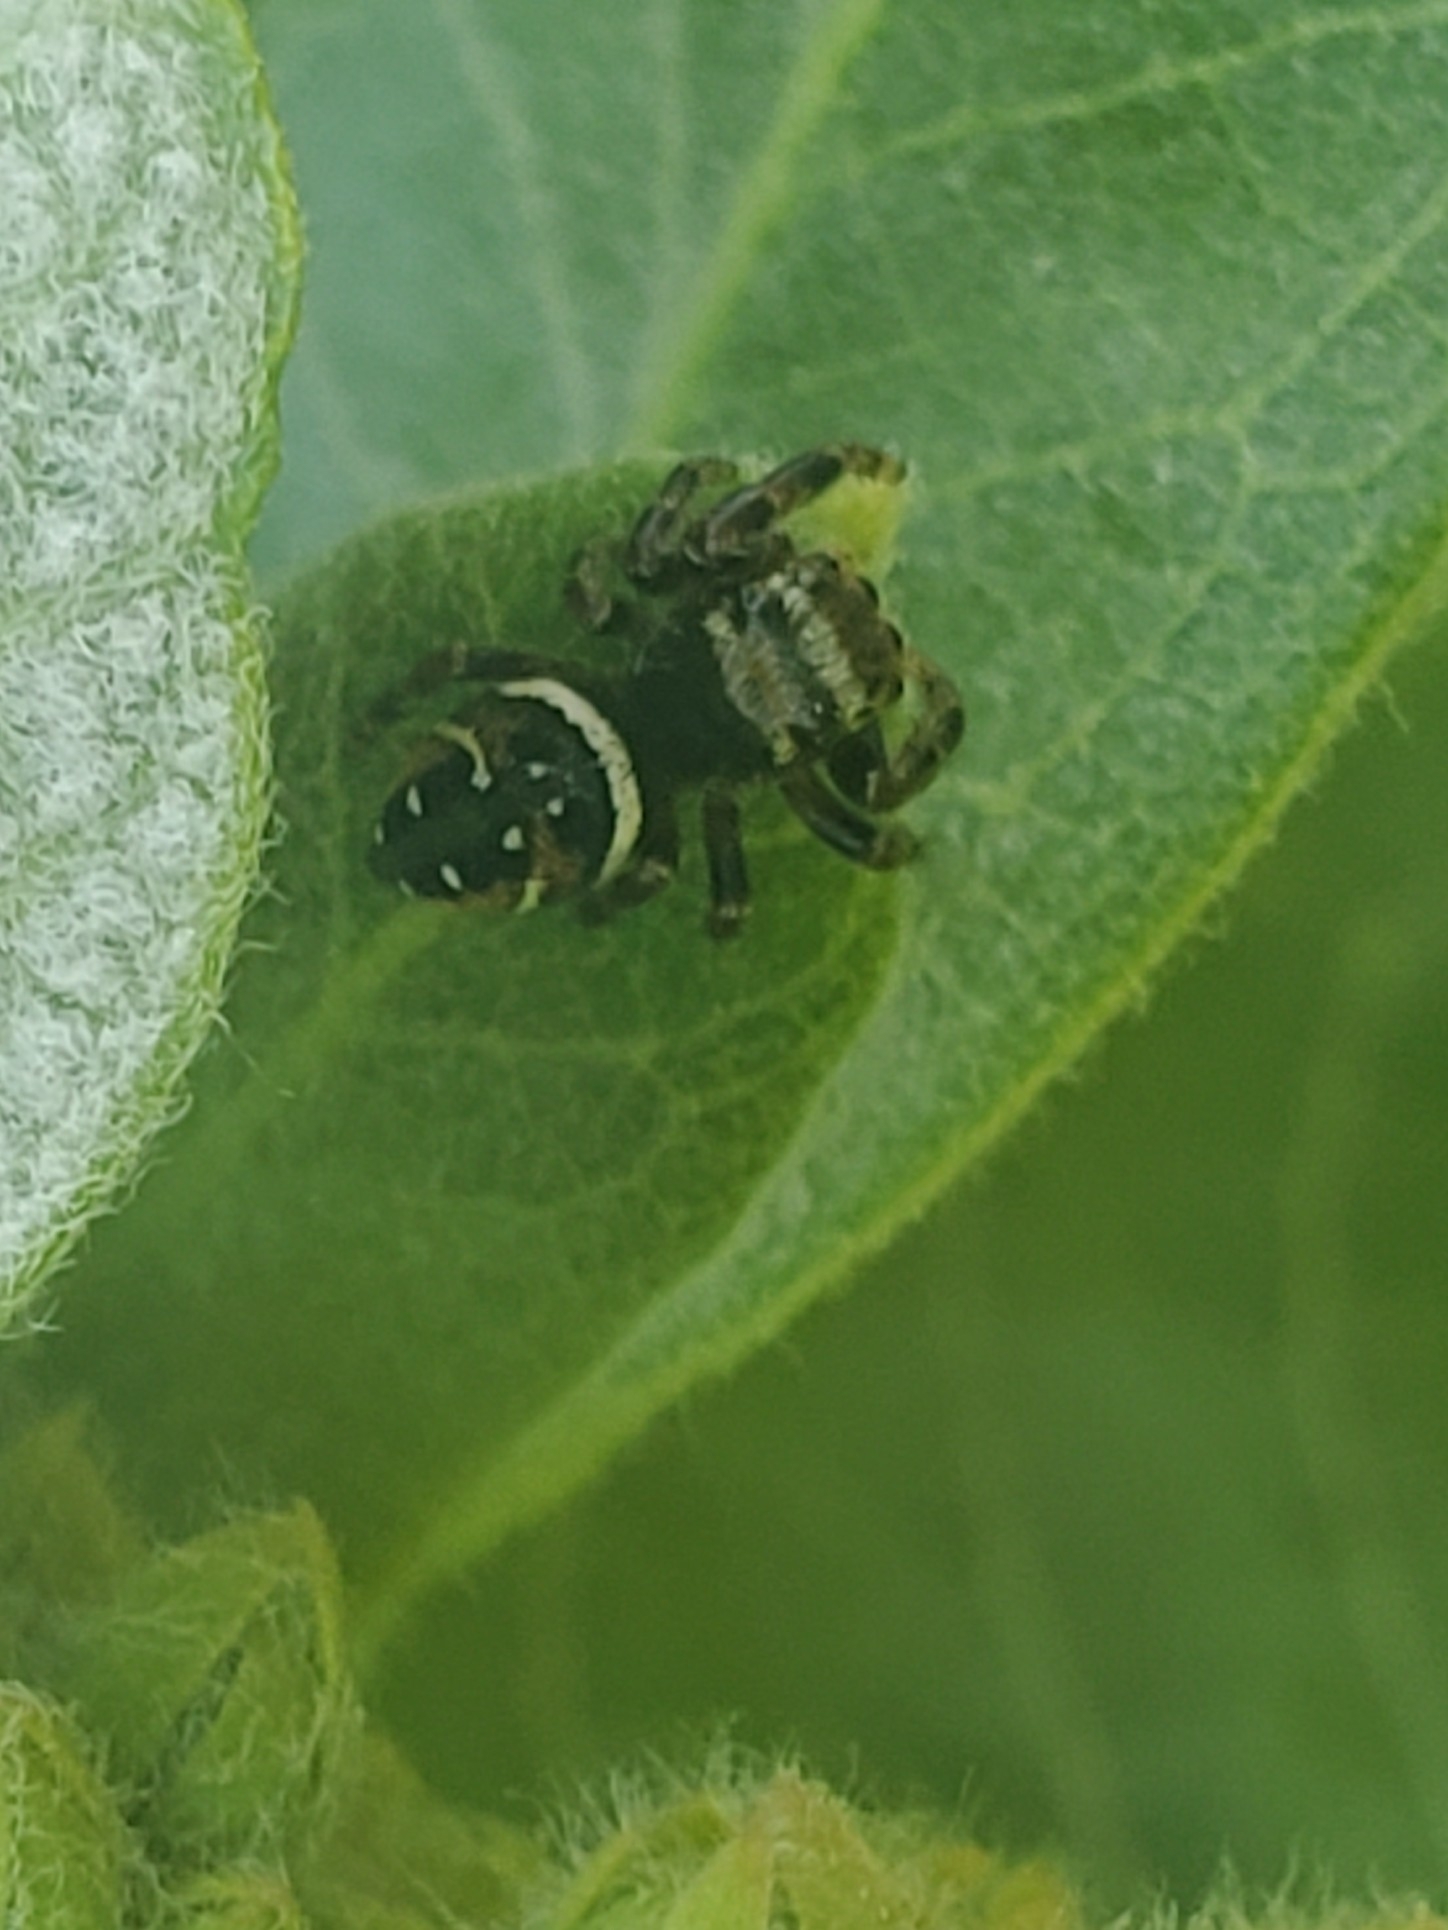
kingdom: Animalia
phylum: Arthropoda
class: Arachnida
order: Araneae
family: Salticidae
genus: Phidippus
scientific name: Phidippus clarus
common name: Brilliant jumping spider
